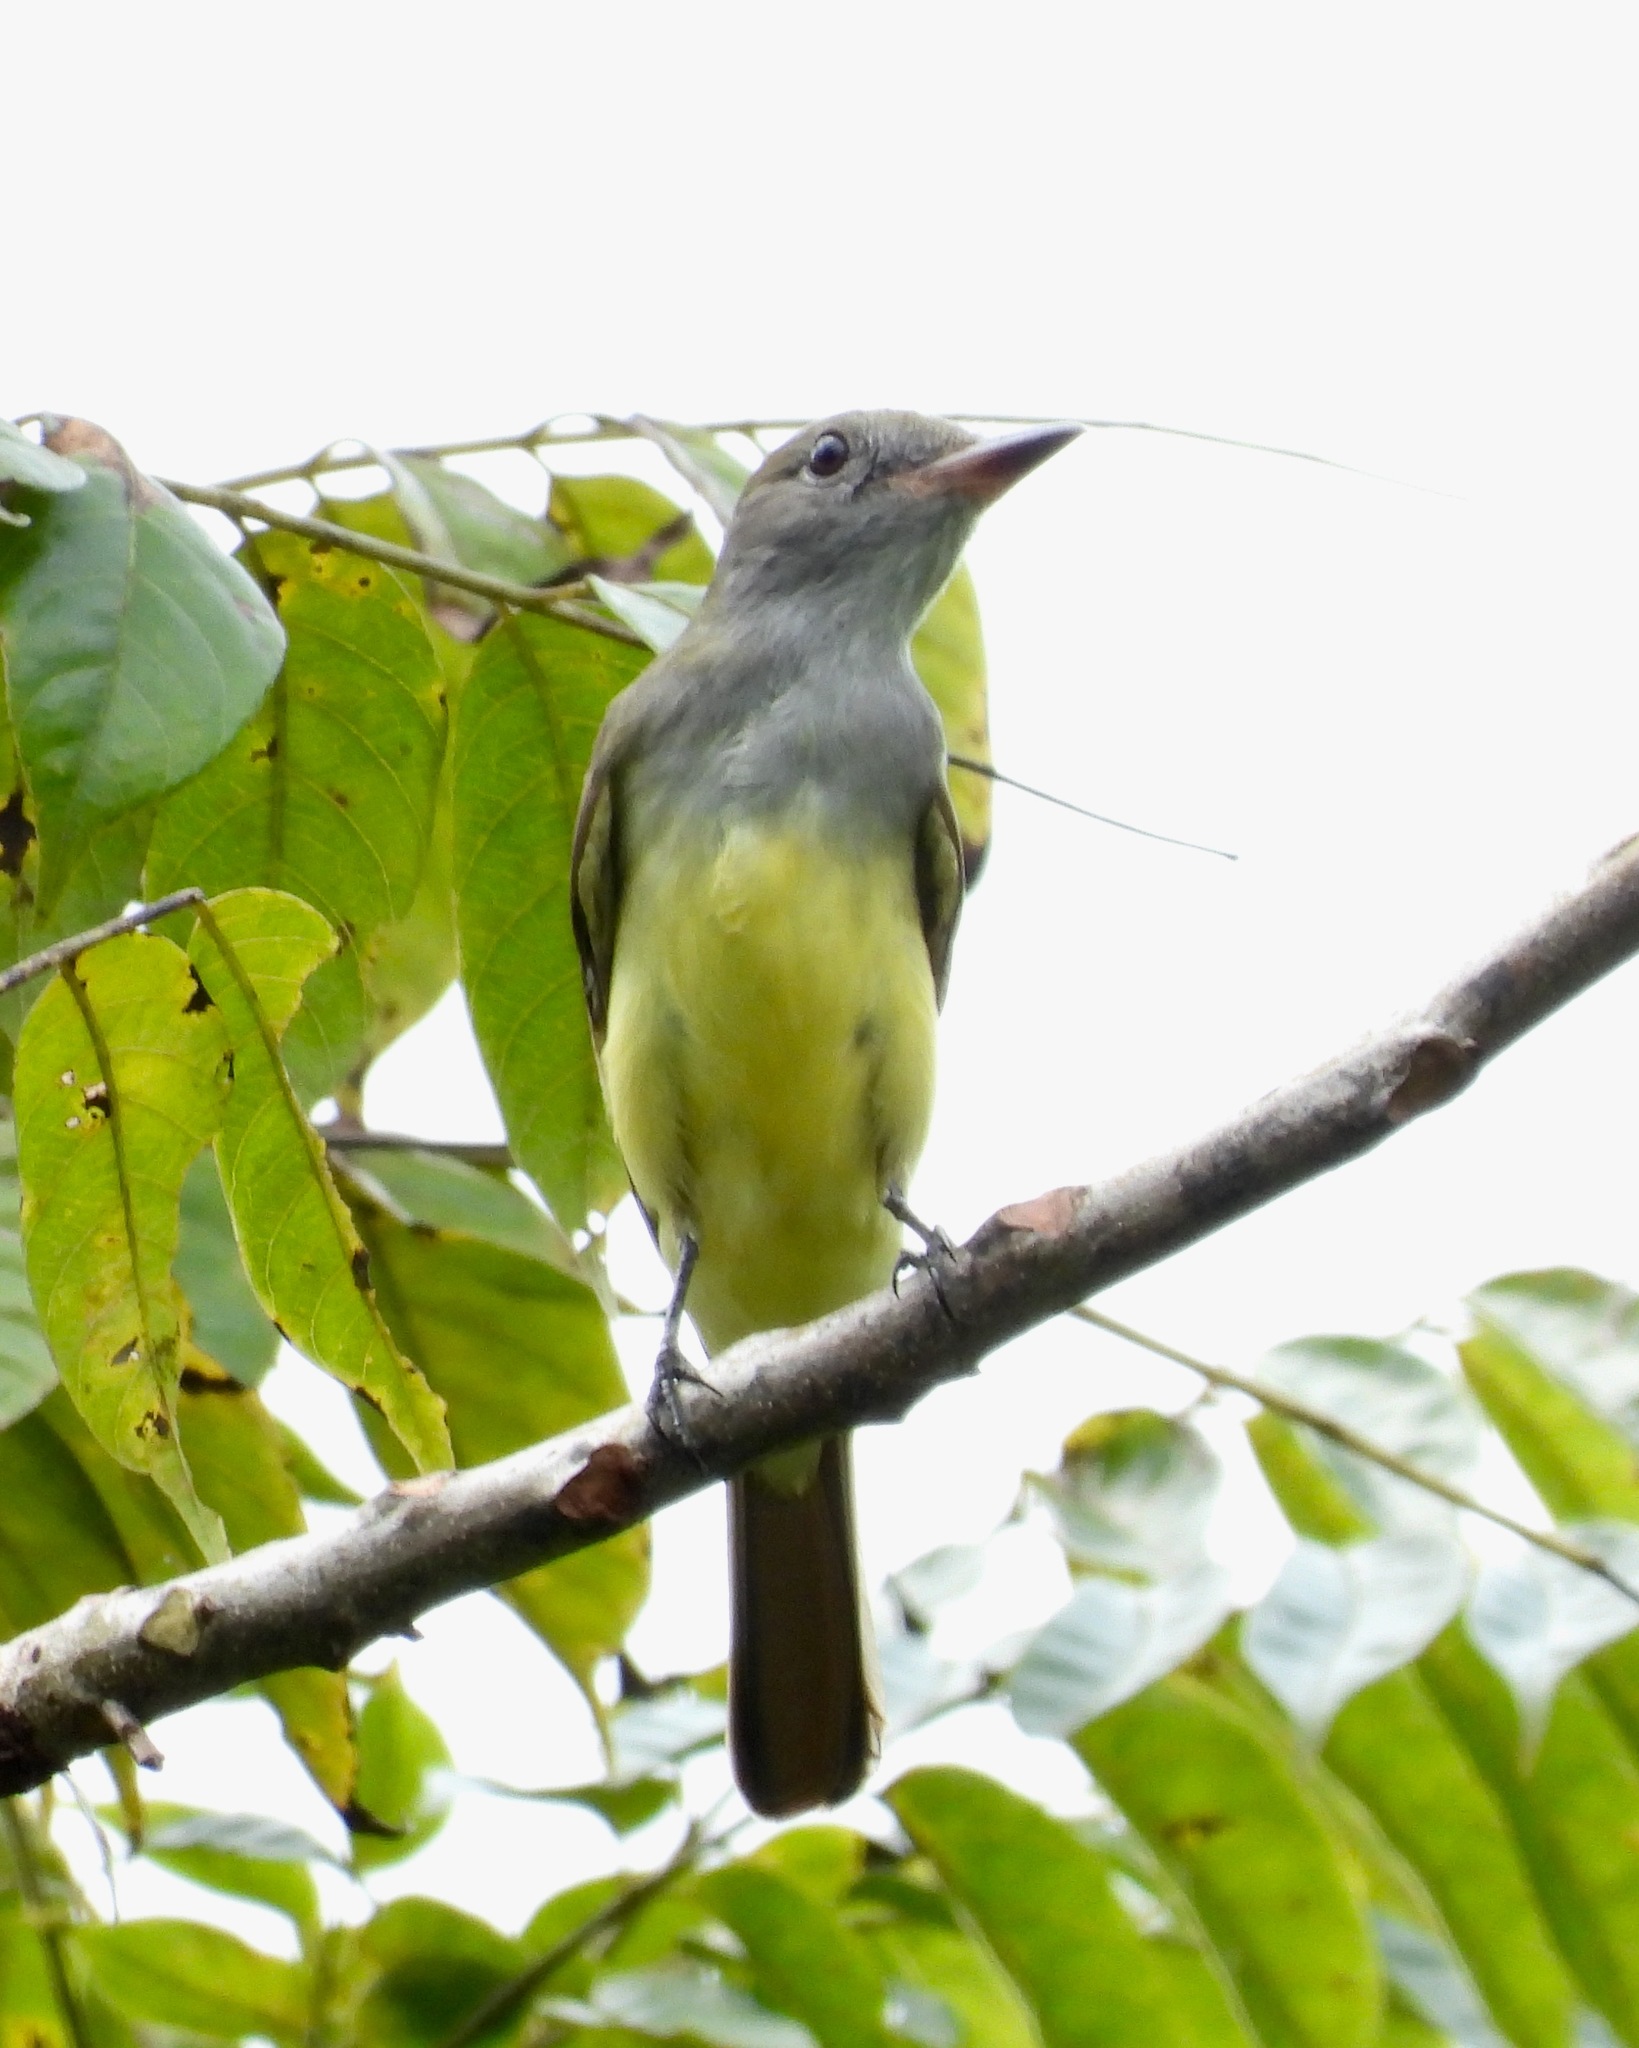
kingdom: Animalia
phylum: Chordata
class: Aves
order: Passeriformes
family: Tyrannidae
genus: Myiarchus
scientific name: Myiarchus crinitus
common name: Great crested flycatcher
